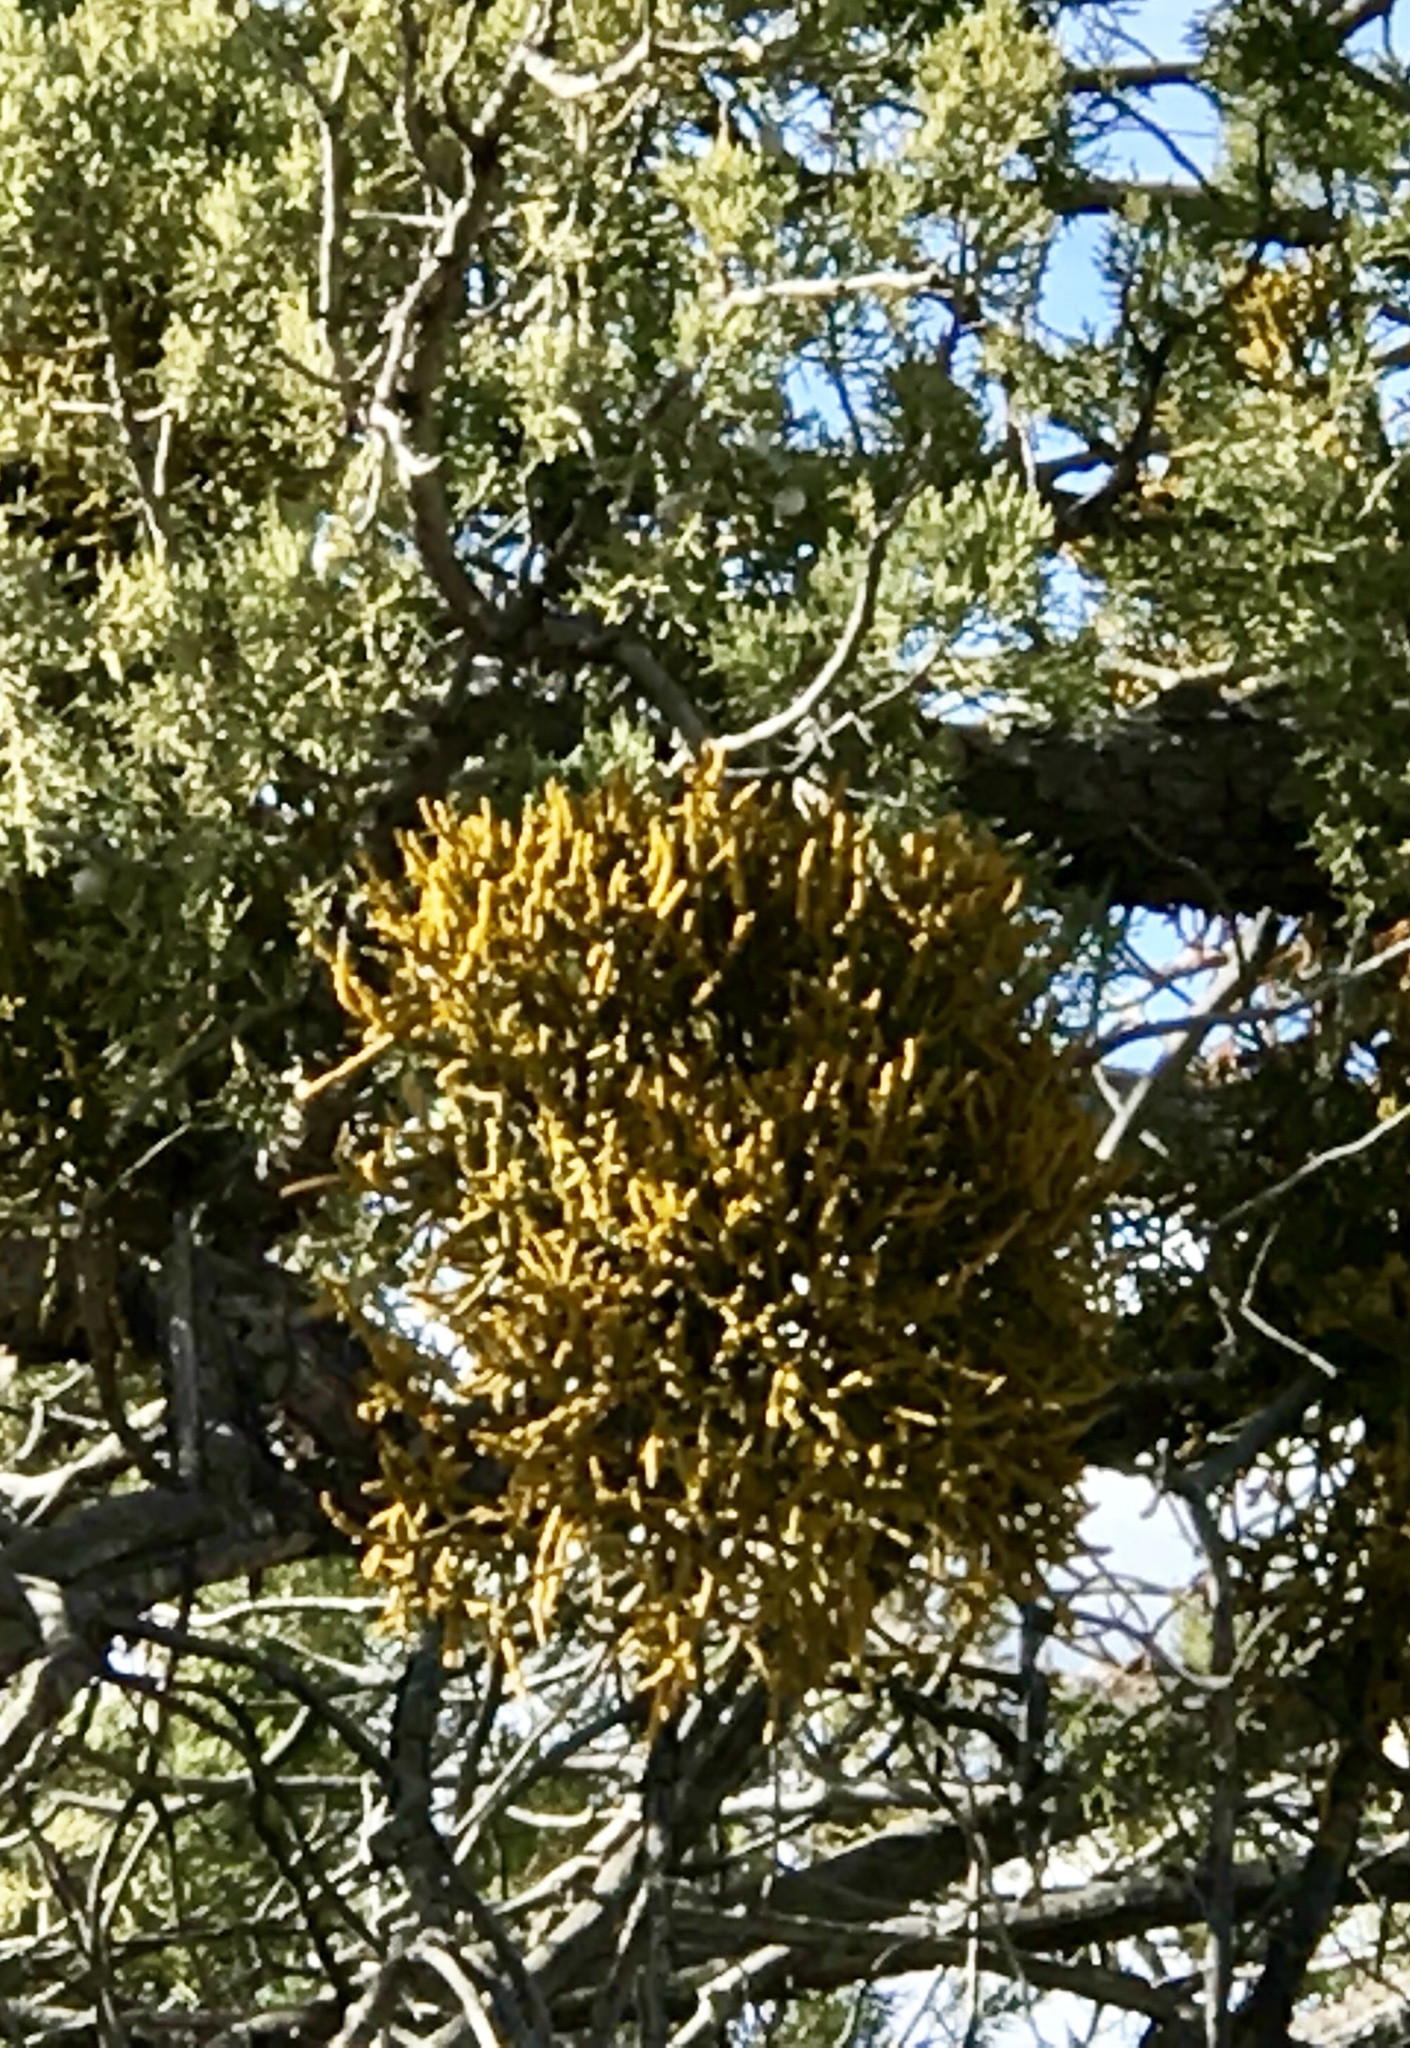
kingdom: Plantae
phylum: Tracheophyta
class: Magnoliopsida
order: Santalales
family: Viscaceae
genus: Phoradendron
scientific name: Phoradendron juniperinum
